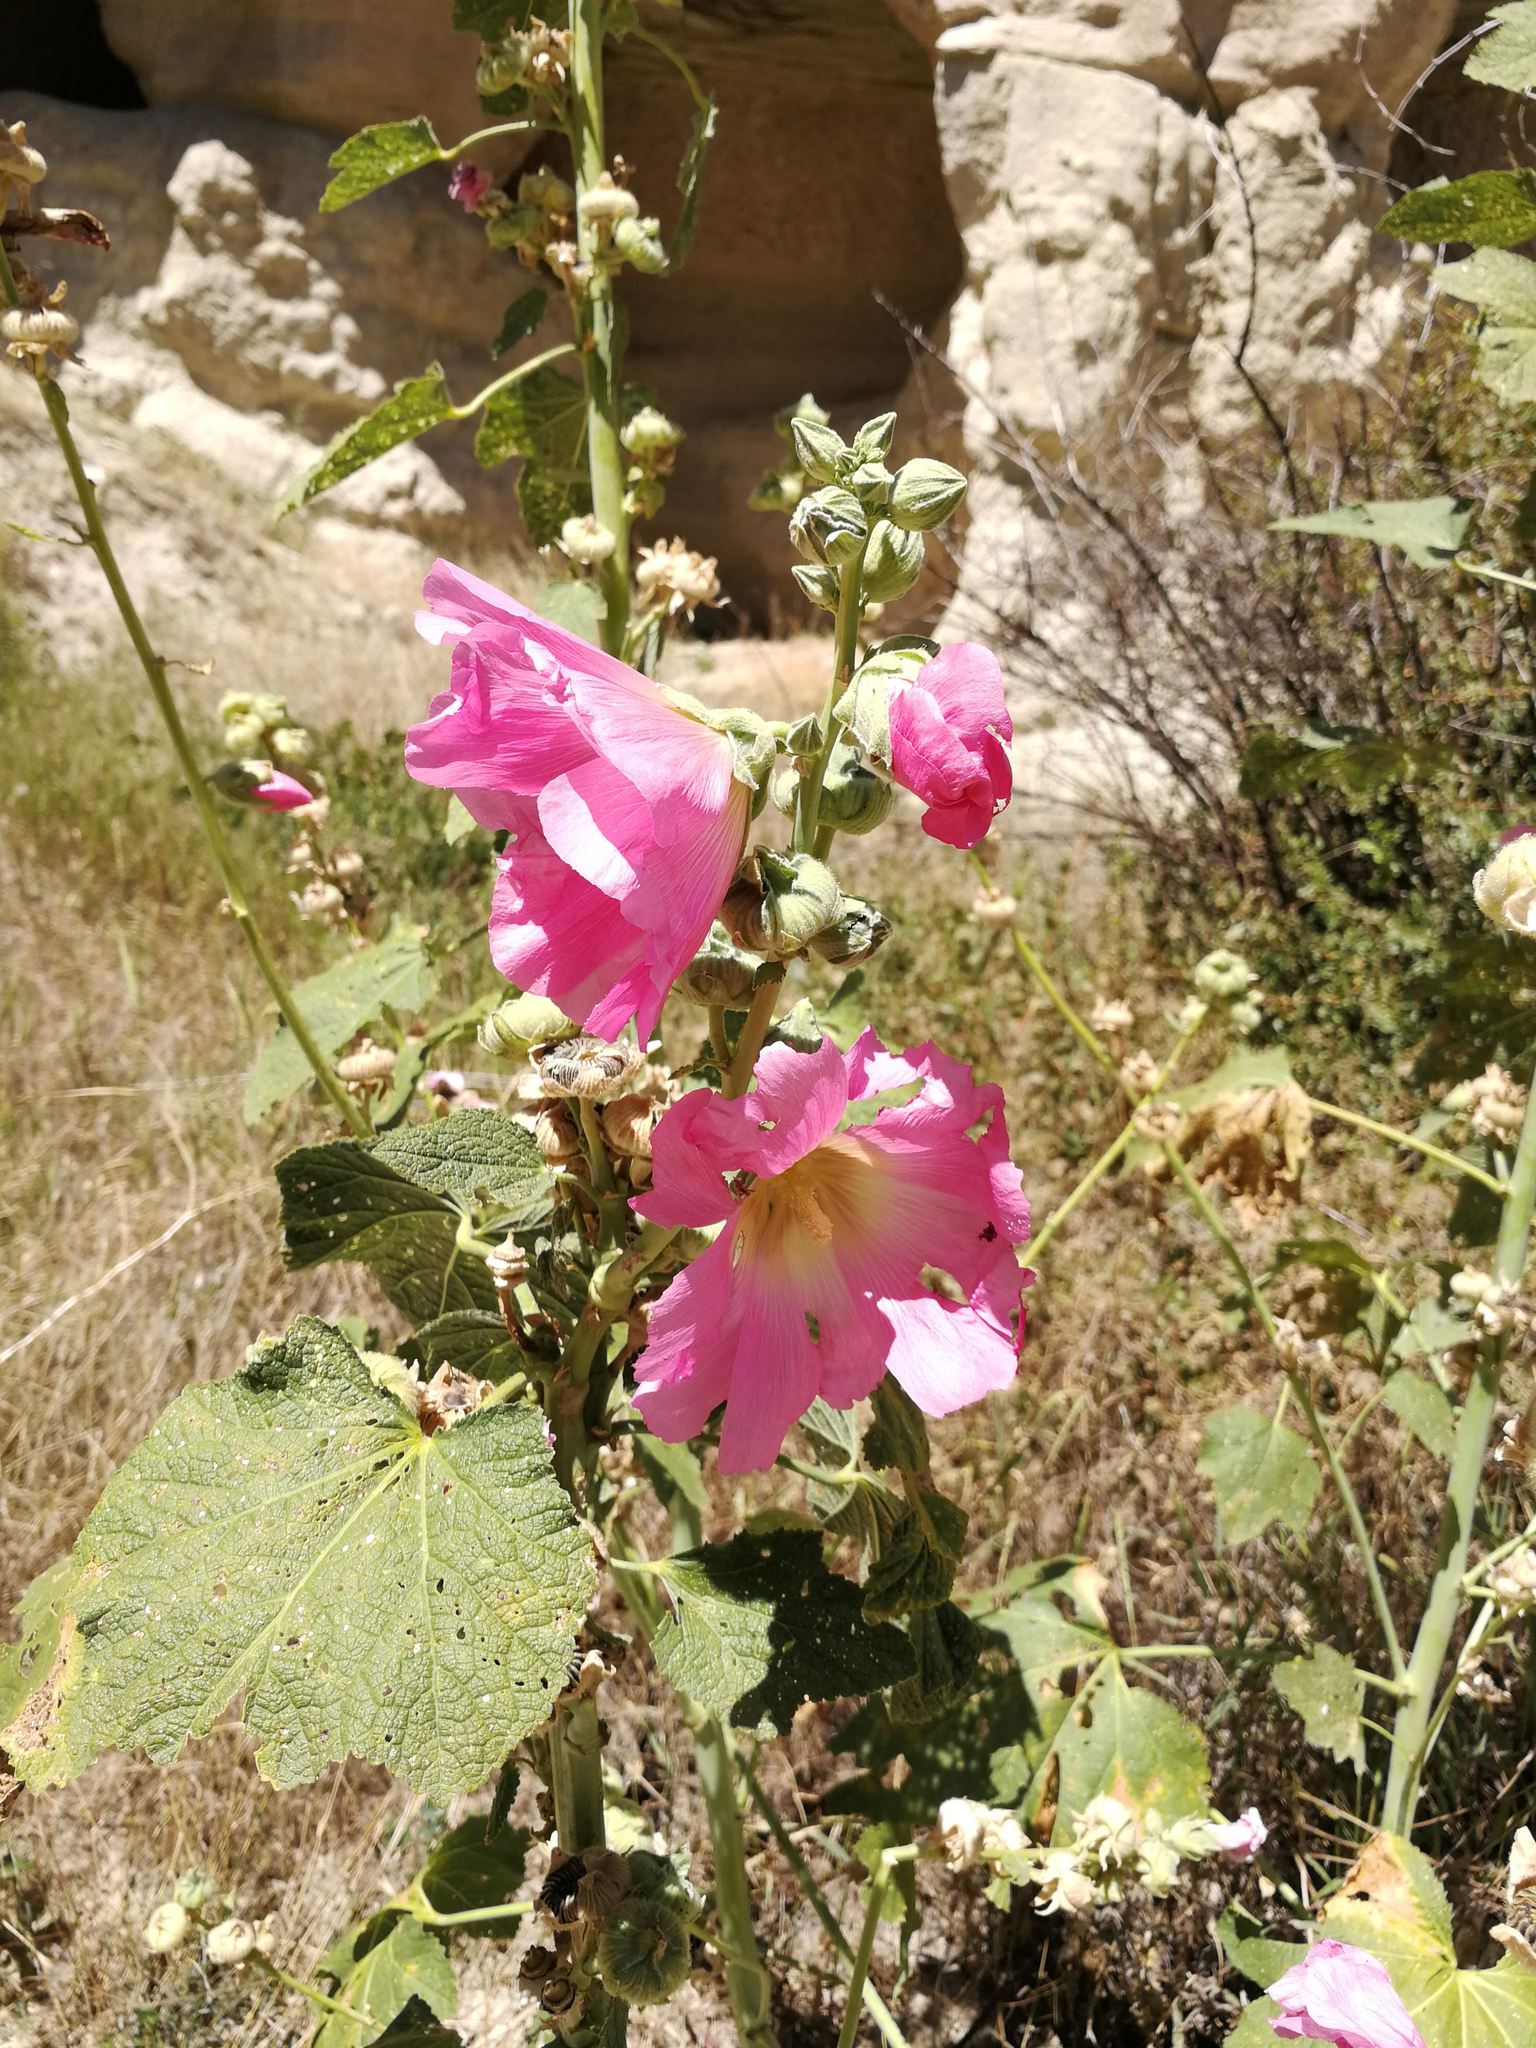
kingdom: Plantae
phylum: Tracheophyta
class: Magnoliopsida
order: Malvales
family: Malvaceae
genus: Alcea
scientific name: Alcea rosea
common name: Hollyhock
